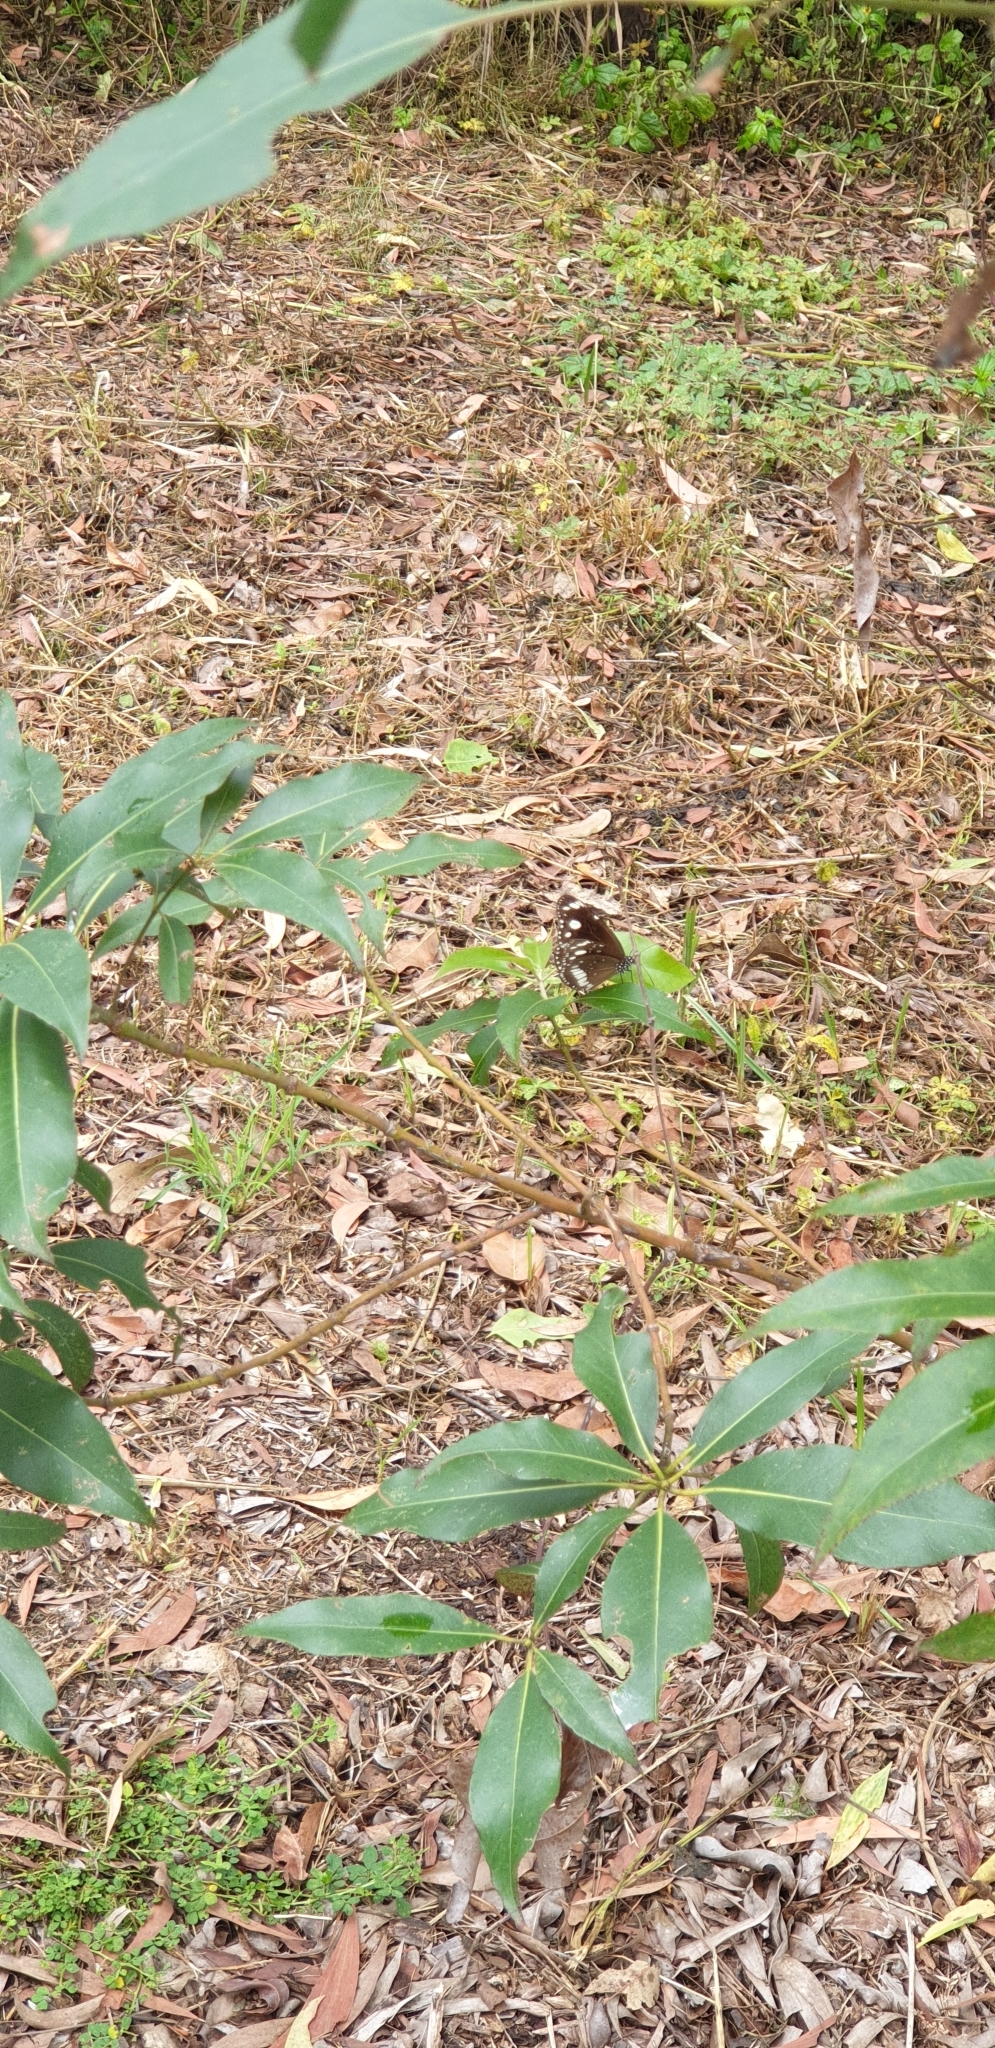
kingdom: Animalia
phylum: Arthropoda
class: Insecta
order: Lepidoptera
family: Nymphalidae
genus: Euploea
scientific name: Euploea core
